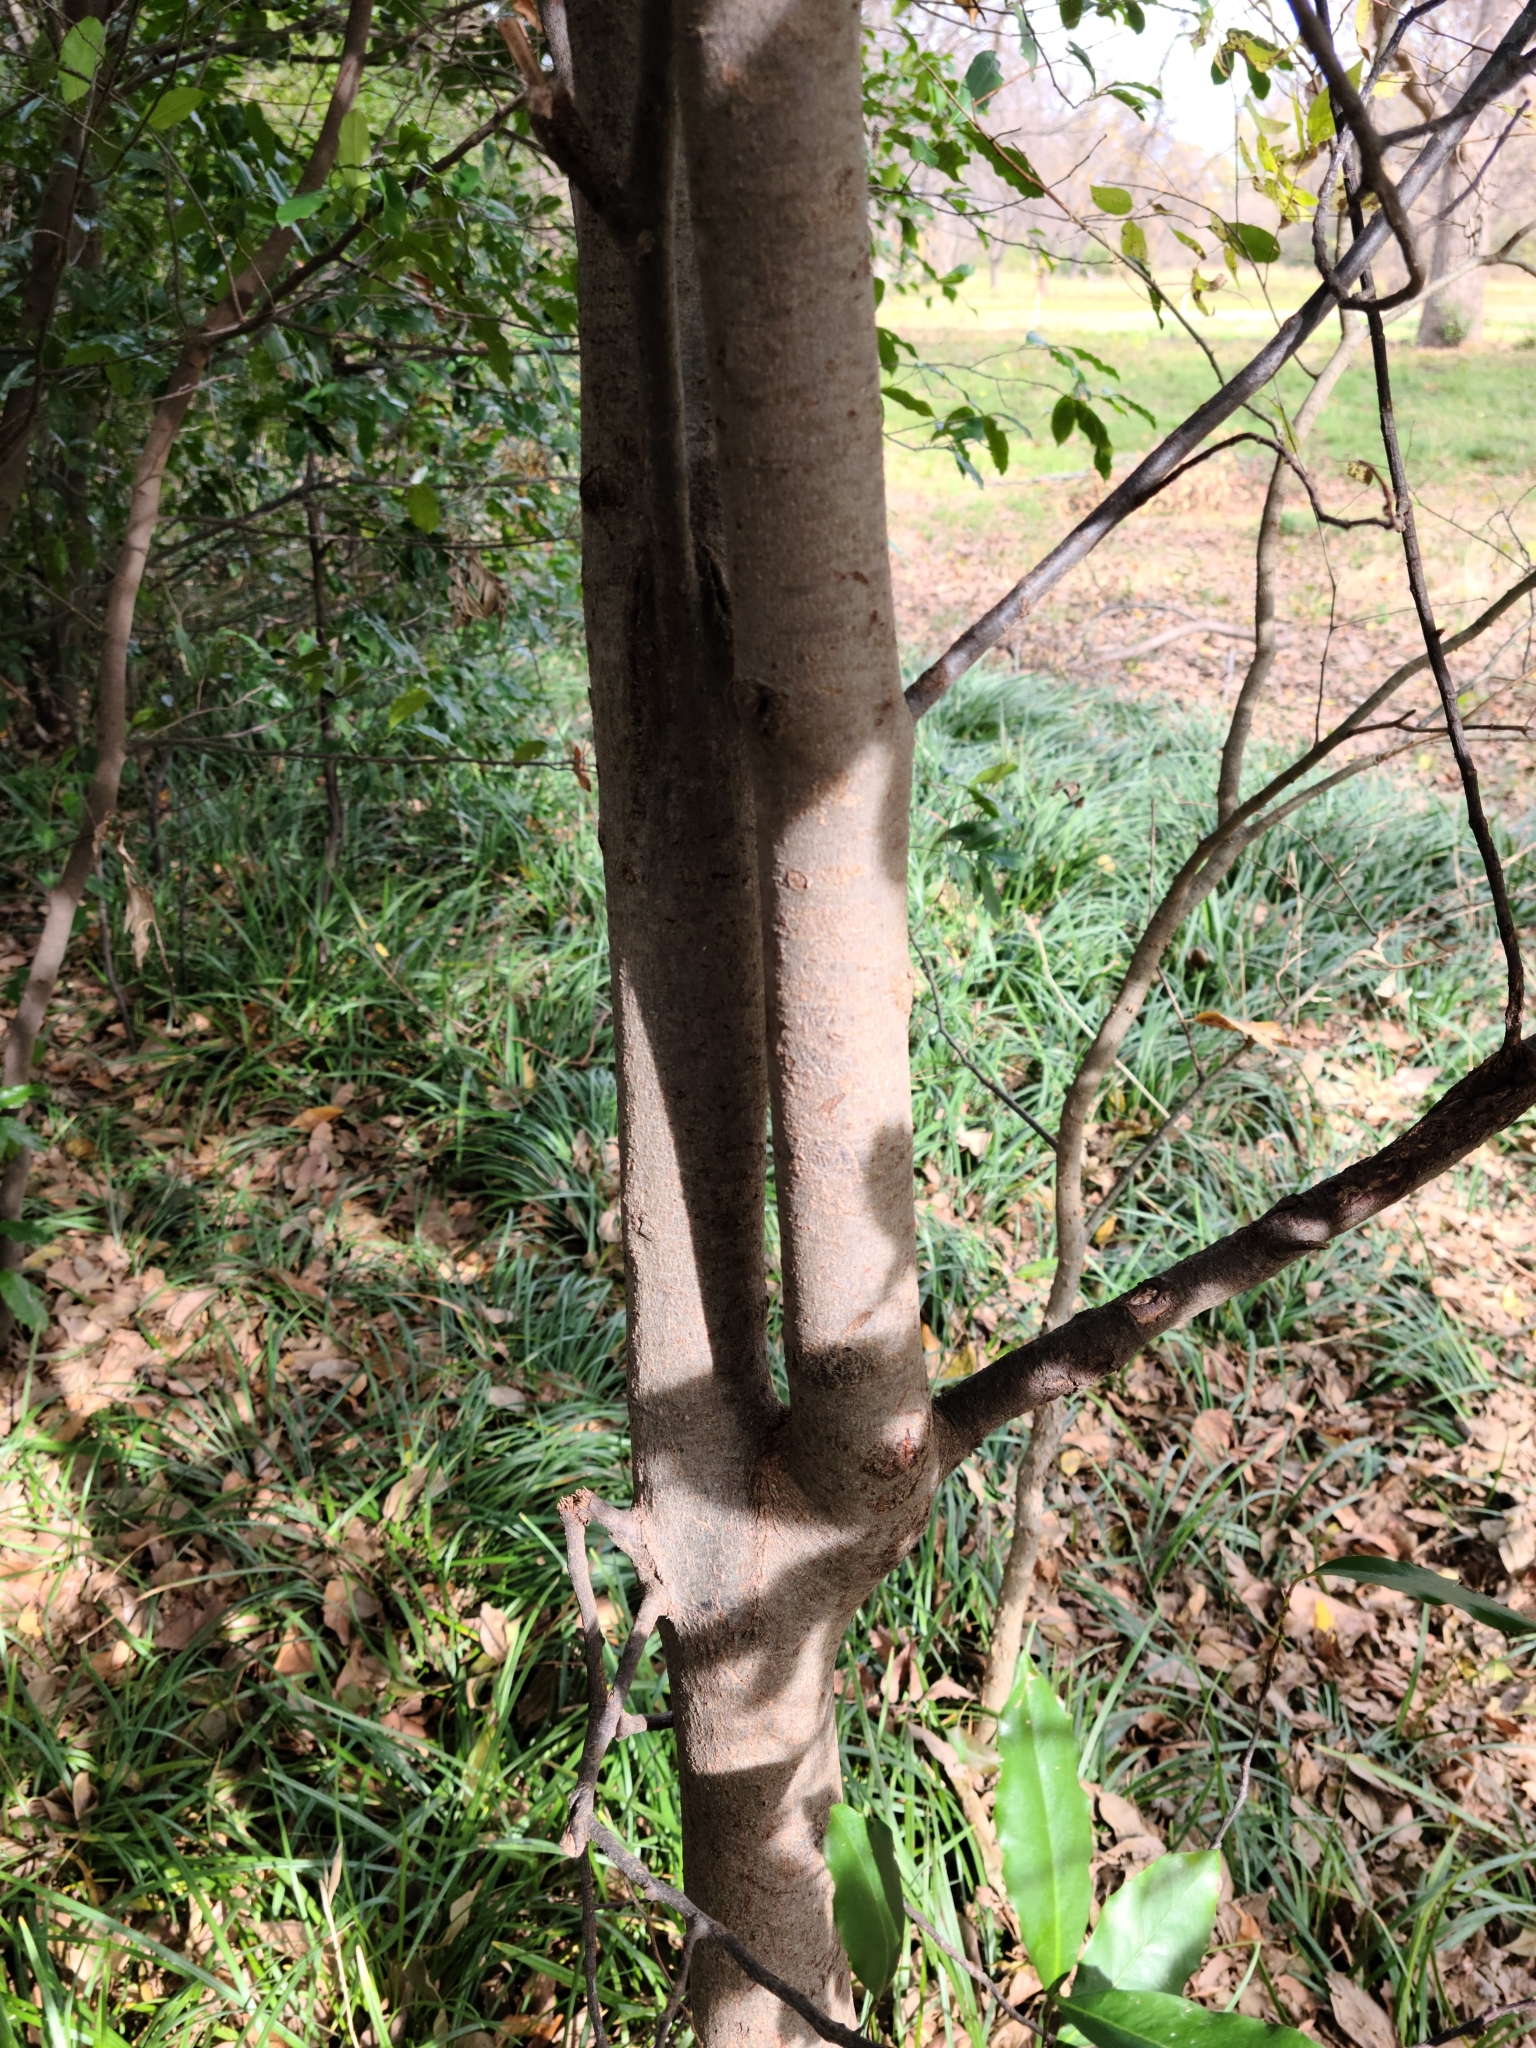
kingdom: Plantae
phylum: Tracheophyta
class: Magnoliopsida
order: Rosales
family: Rosaceae
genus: Prunus
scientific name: Prunus caroliniana
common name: Carolina laurel cherry
